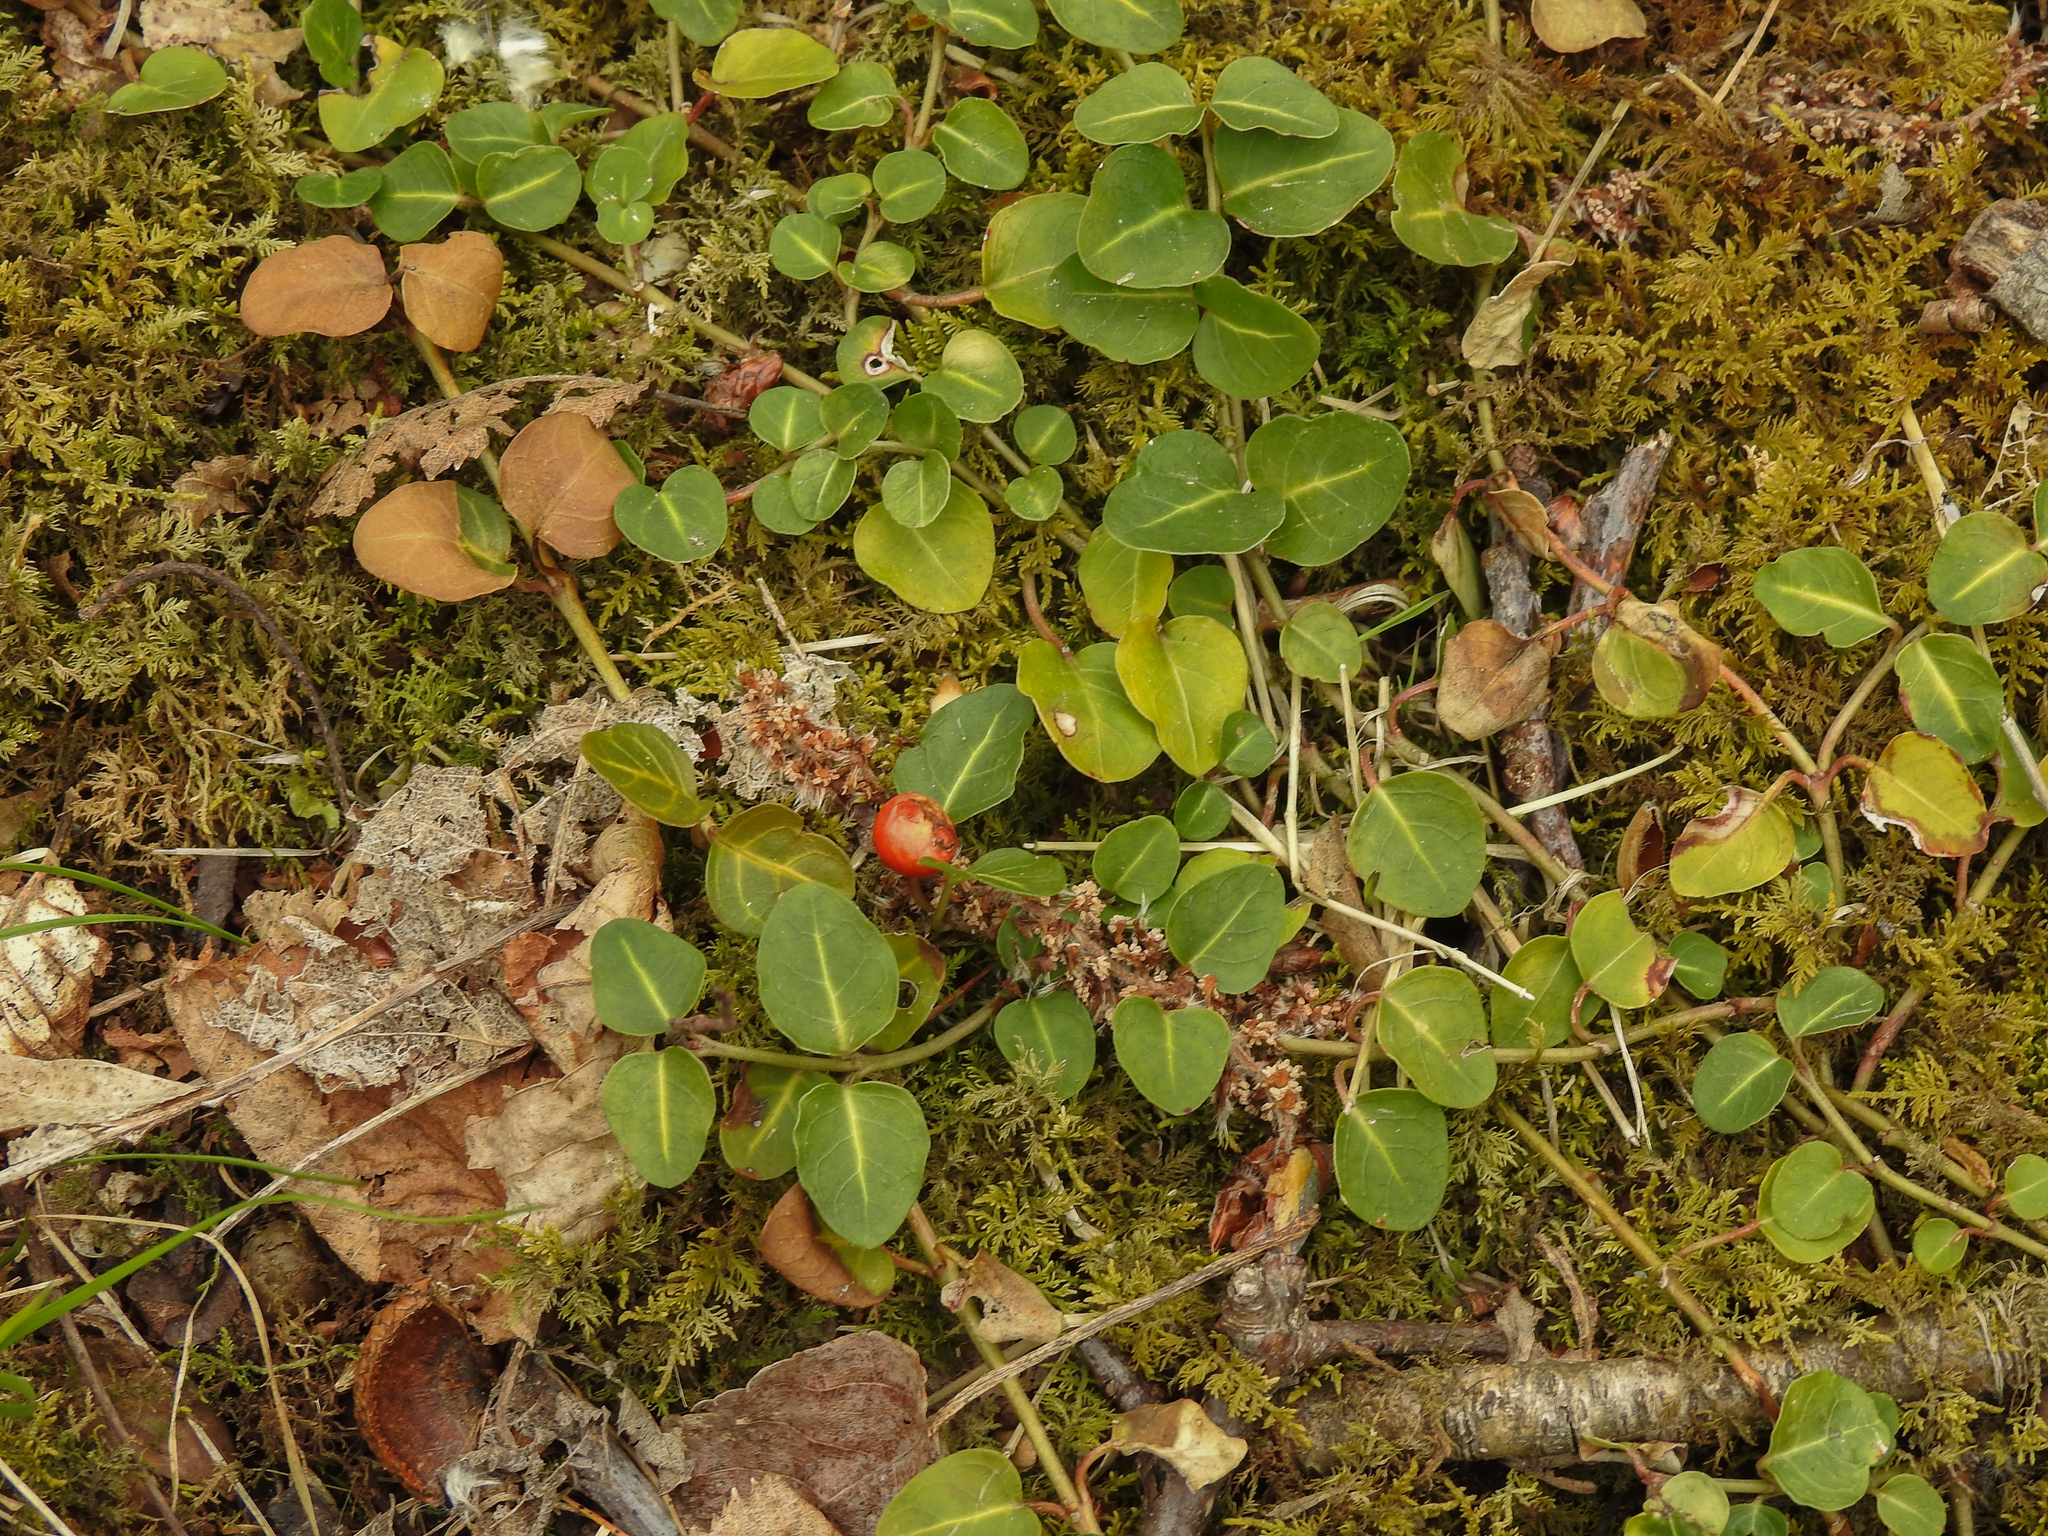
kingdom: Plantae
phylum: Tracheophyta
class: Magnoliopsida
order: Gentianales
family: Rubiaceae
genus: Mitchella
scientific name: Mitchella repens
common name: Partridge-berry
